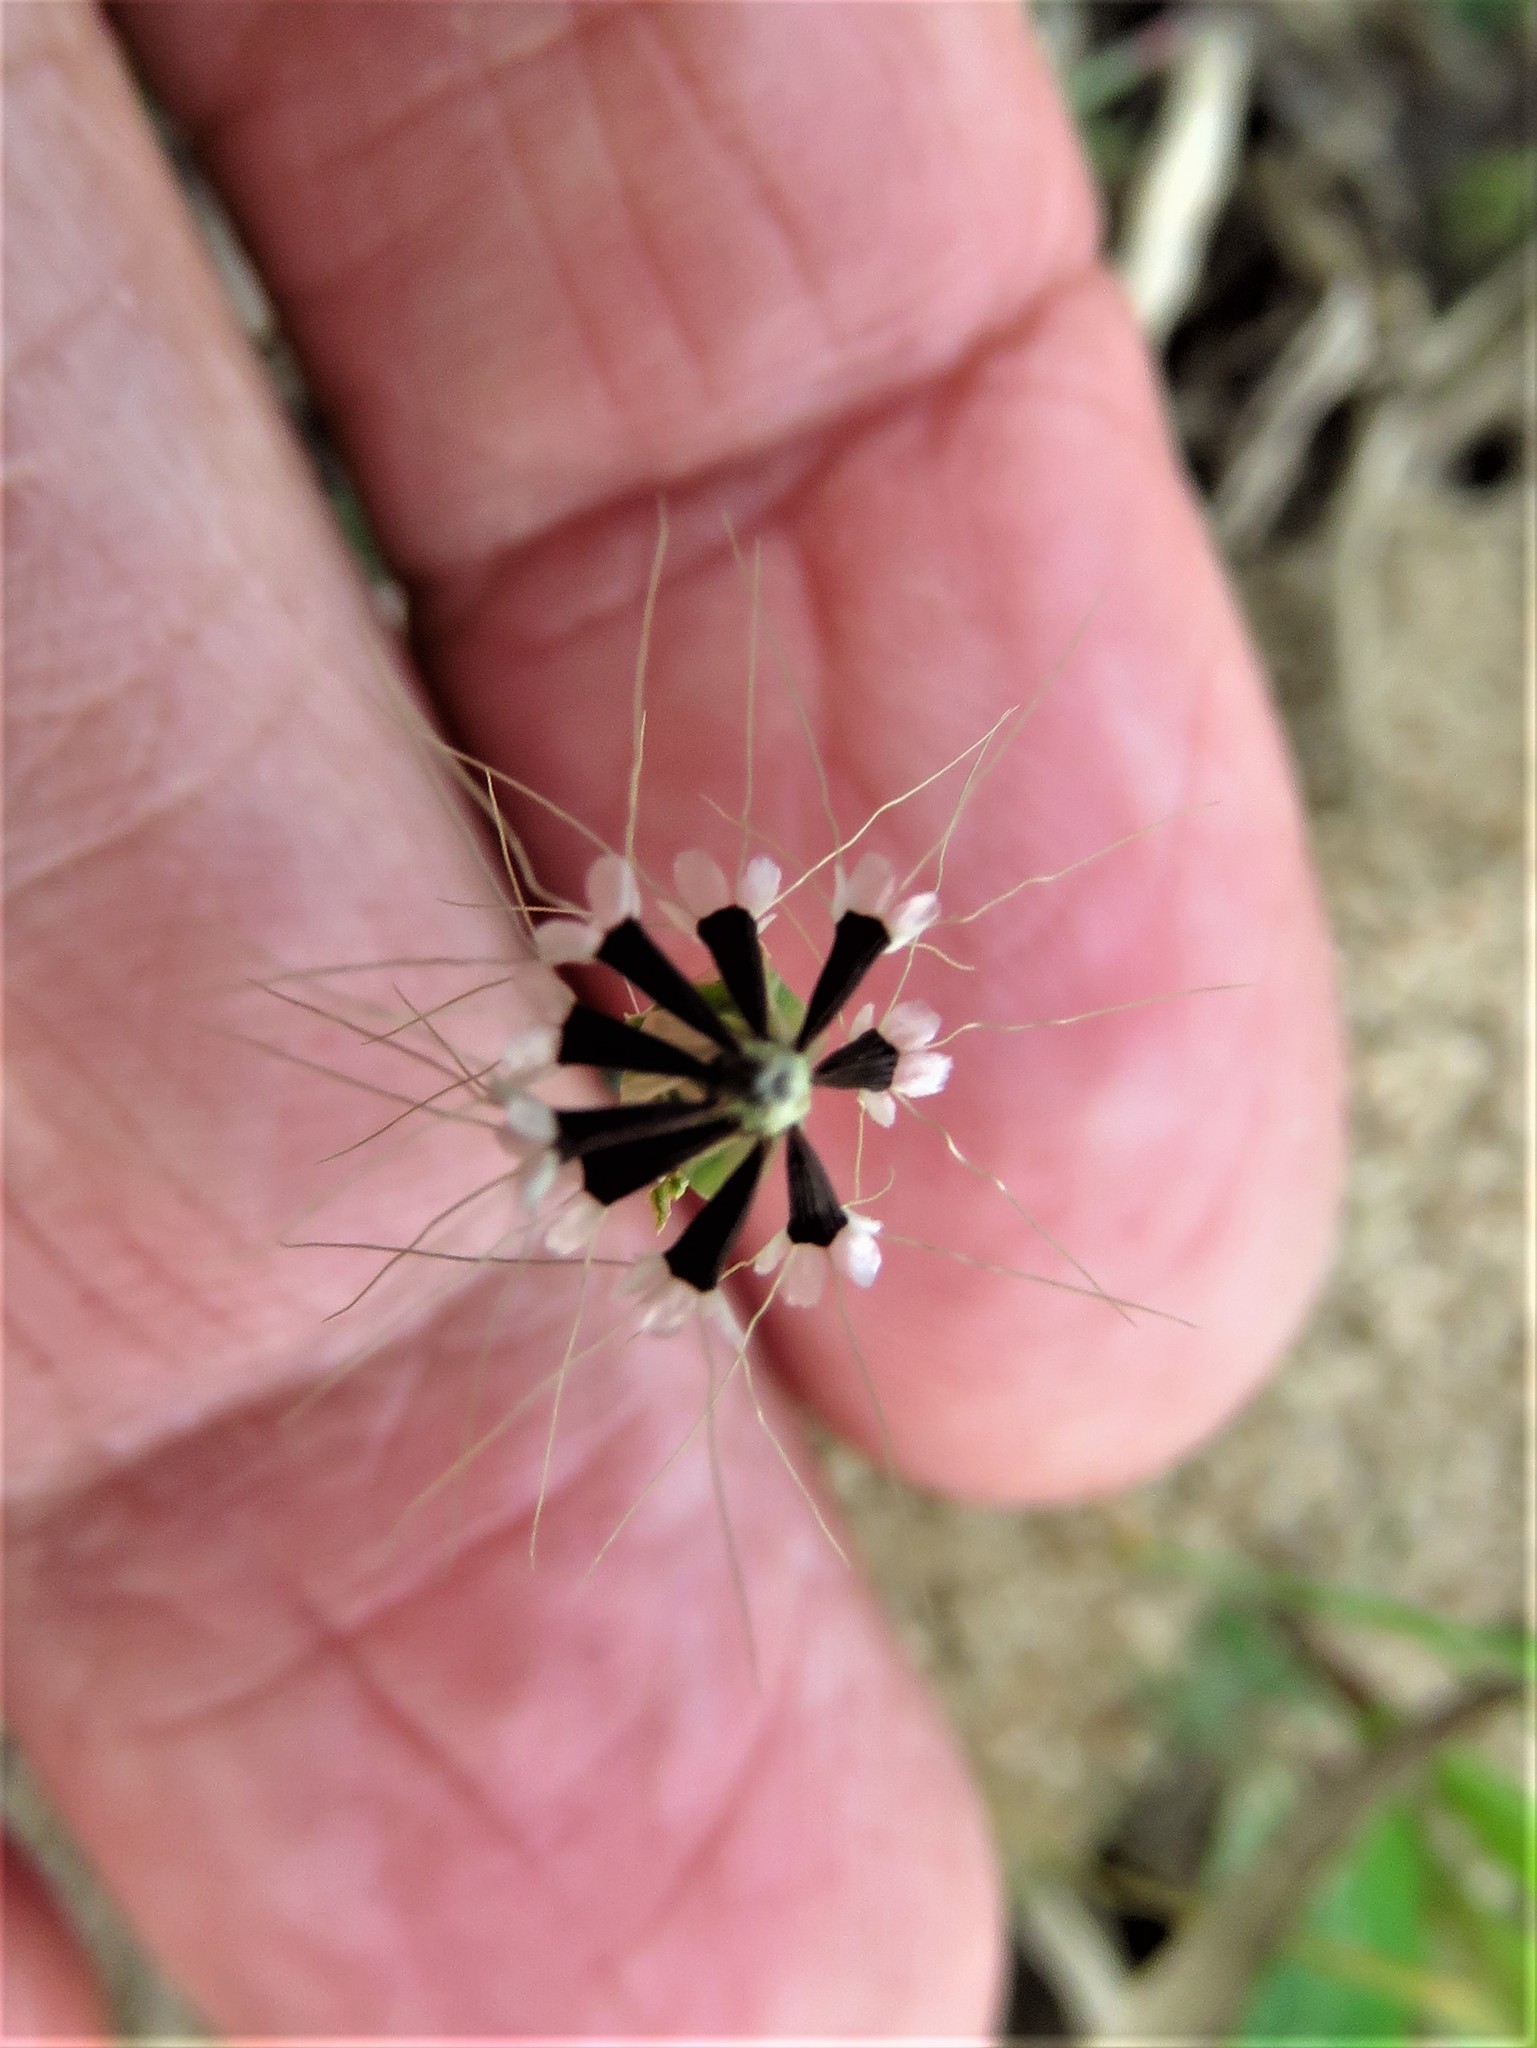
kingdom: Plantae
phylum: Tracheophyta
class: Magnoliopsida
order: Asterales
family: Asteraceae
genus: Krigia
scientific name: Krigia virginica
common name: Virginia dwarf-dandelion
